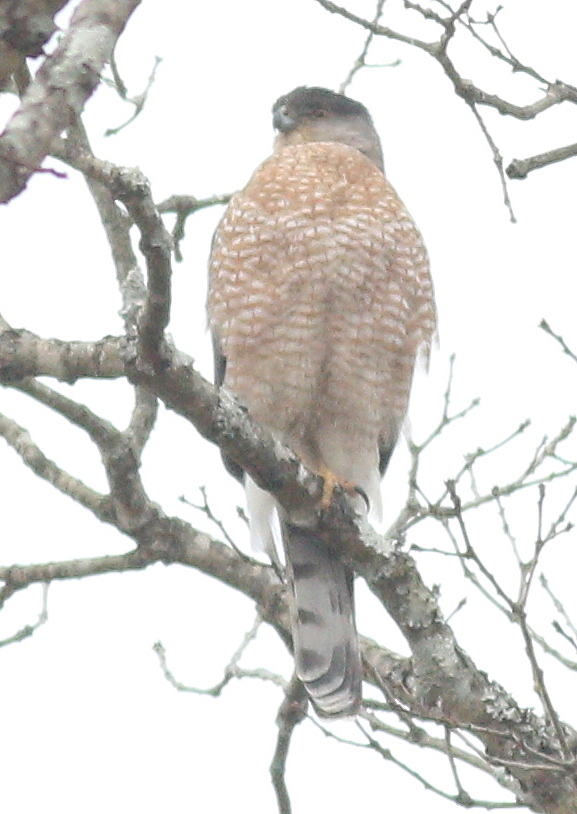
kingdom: Animalia
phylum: Chordata
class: Aves
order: Accipitriformes
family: Accipitridae
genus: Accipiter
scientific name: Accipiter cooperii
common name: Cooper's hawk
